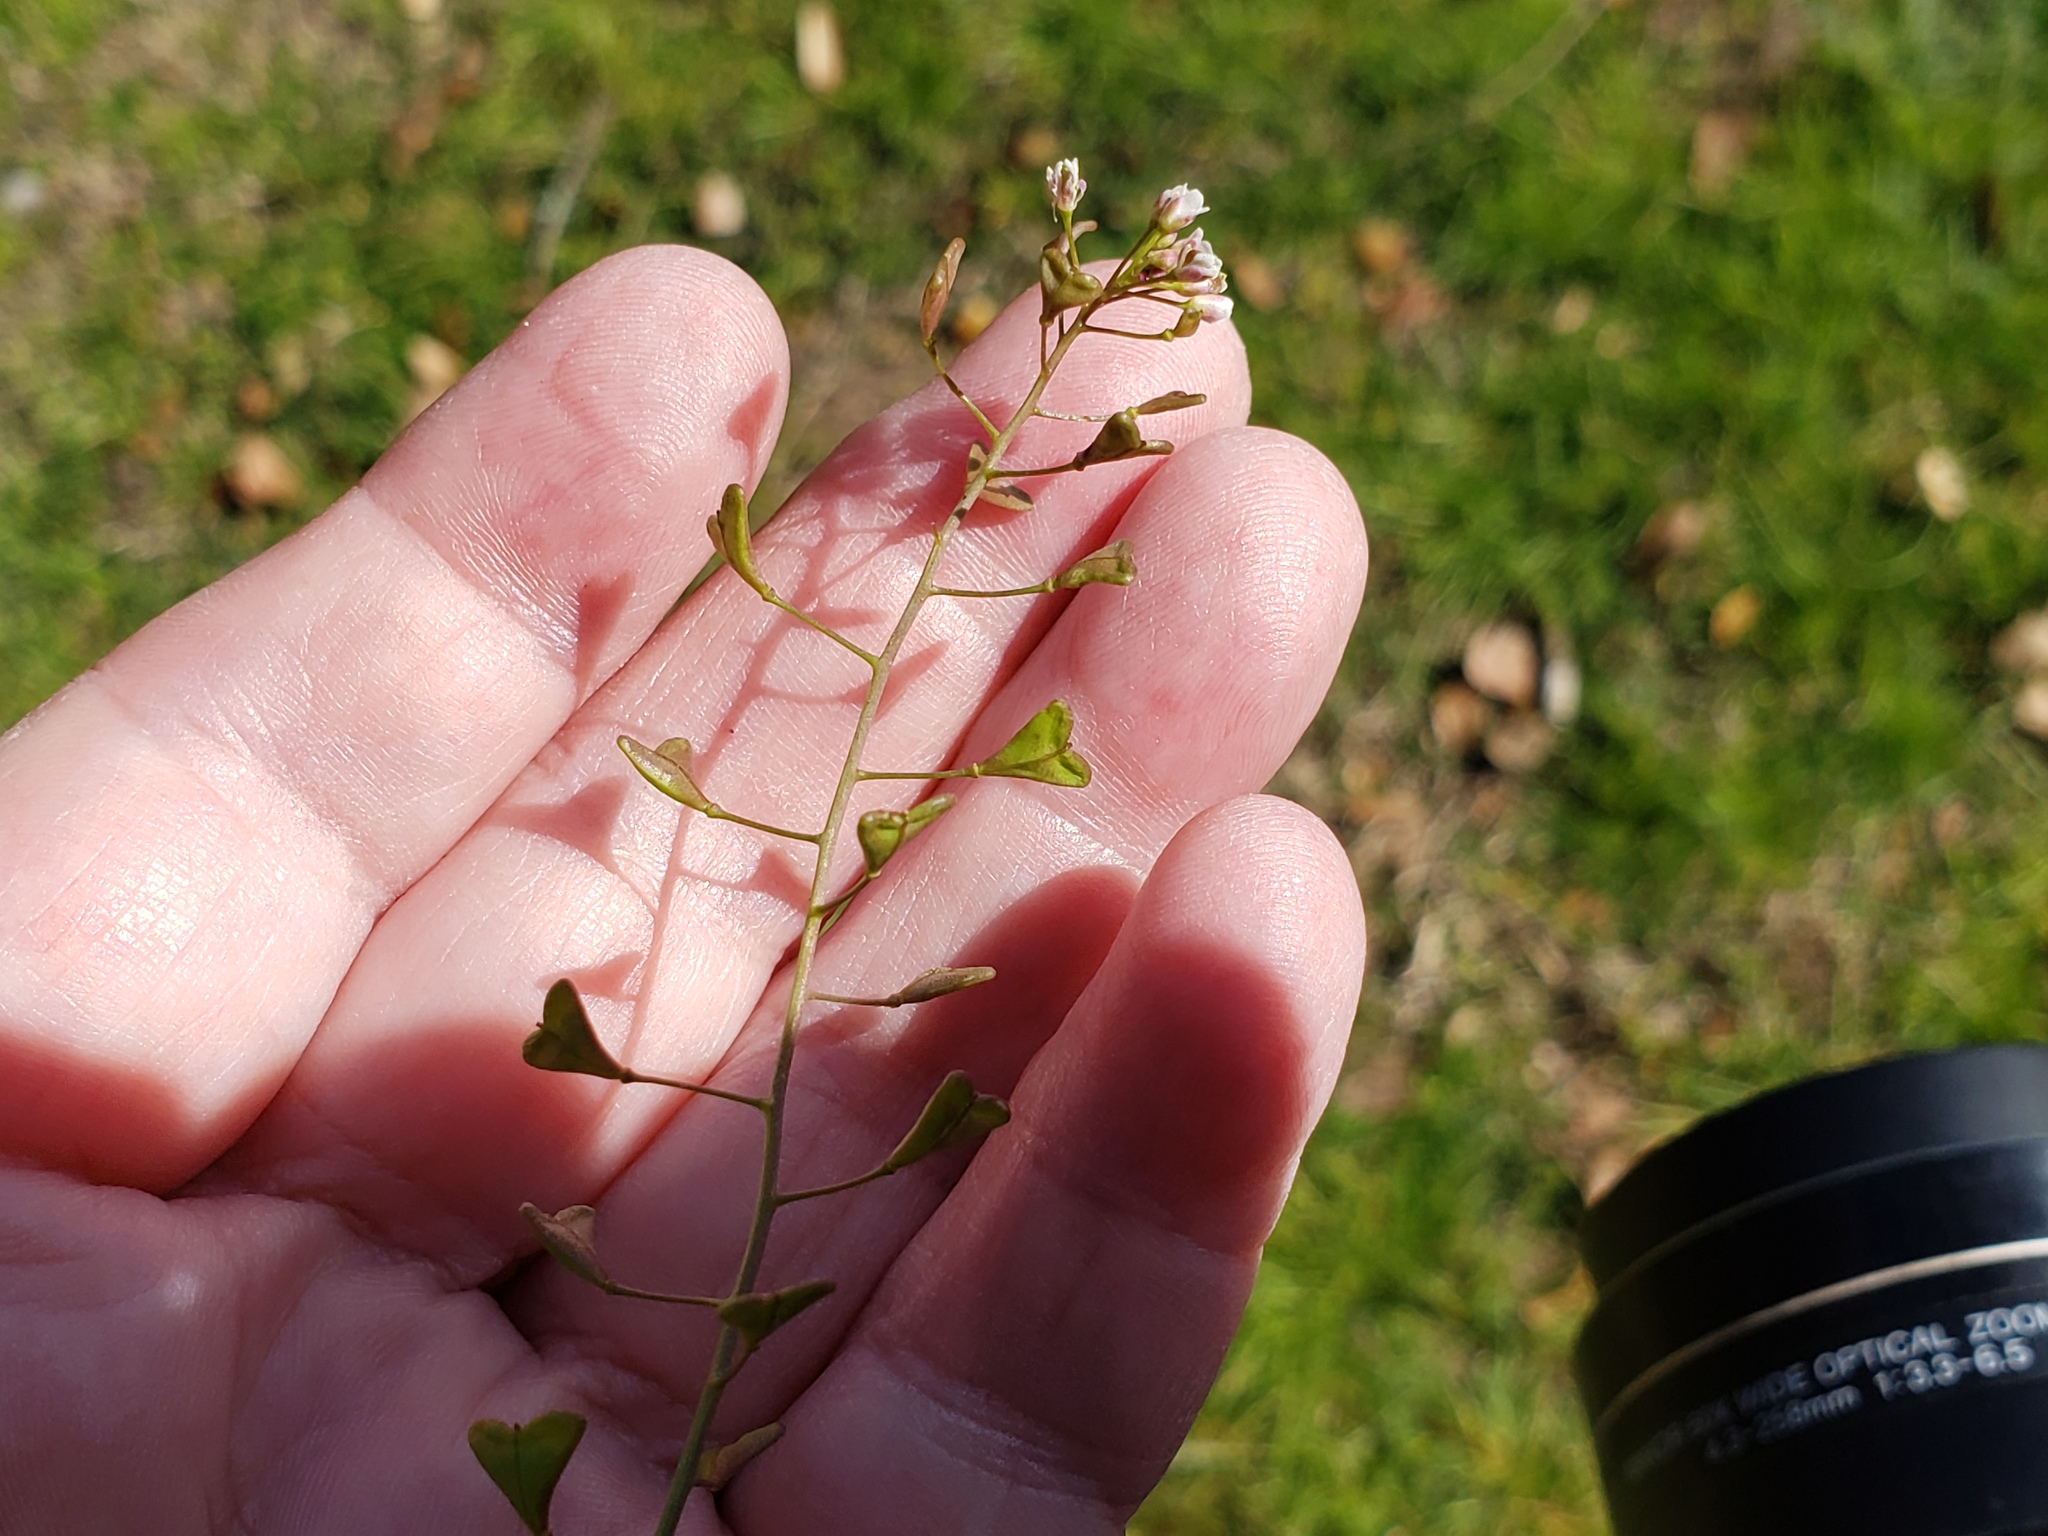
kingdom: Plantae
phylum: Tracheophyta
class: Magnoliopsida
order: Brassicales
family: Brassicaceae
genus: Capsella
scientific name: Capsella bursa-pastoris
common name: Shepherd's purse
